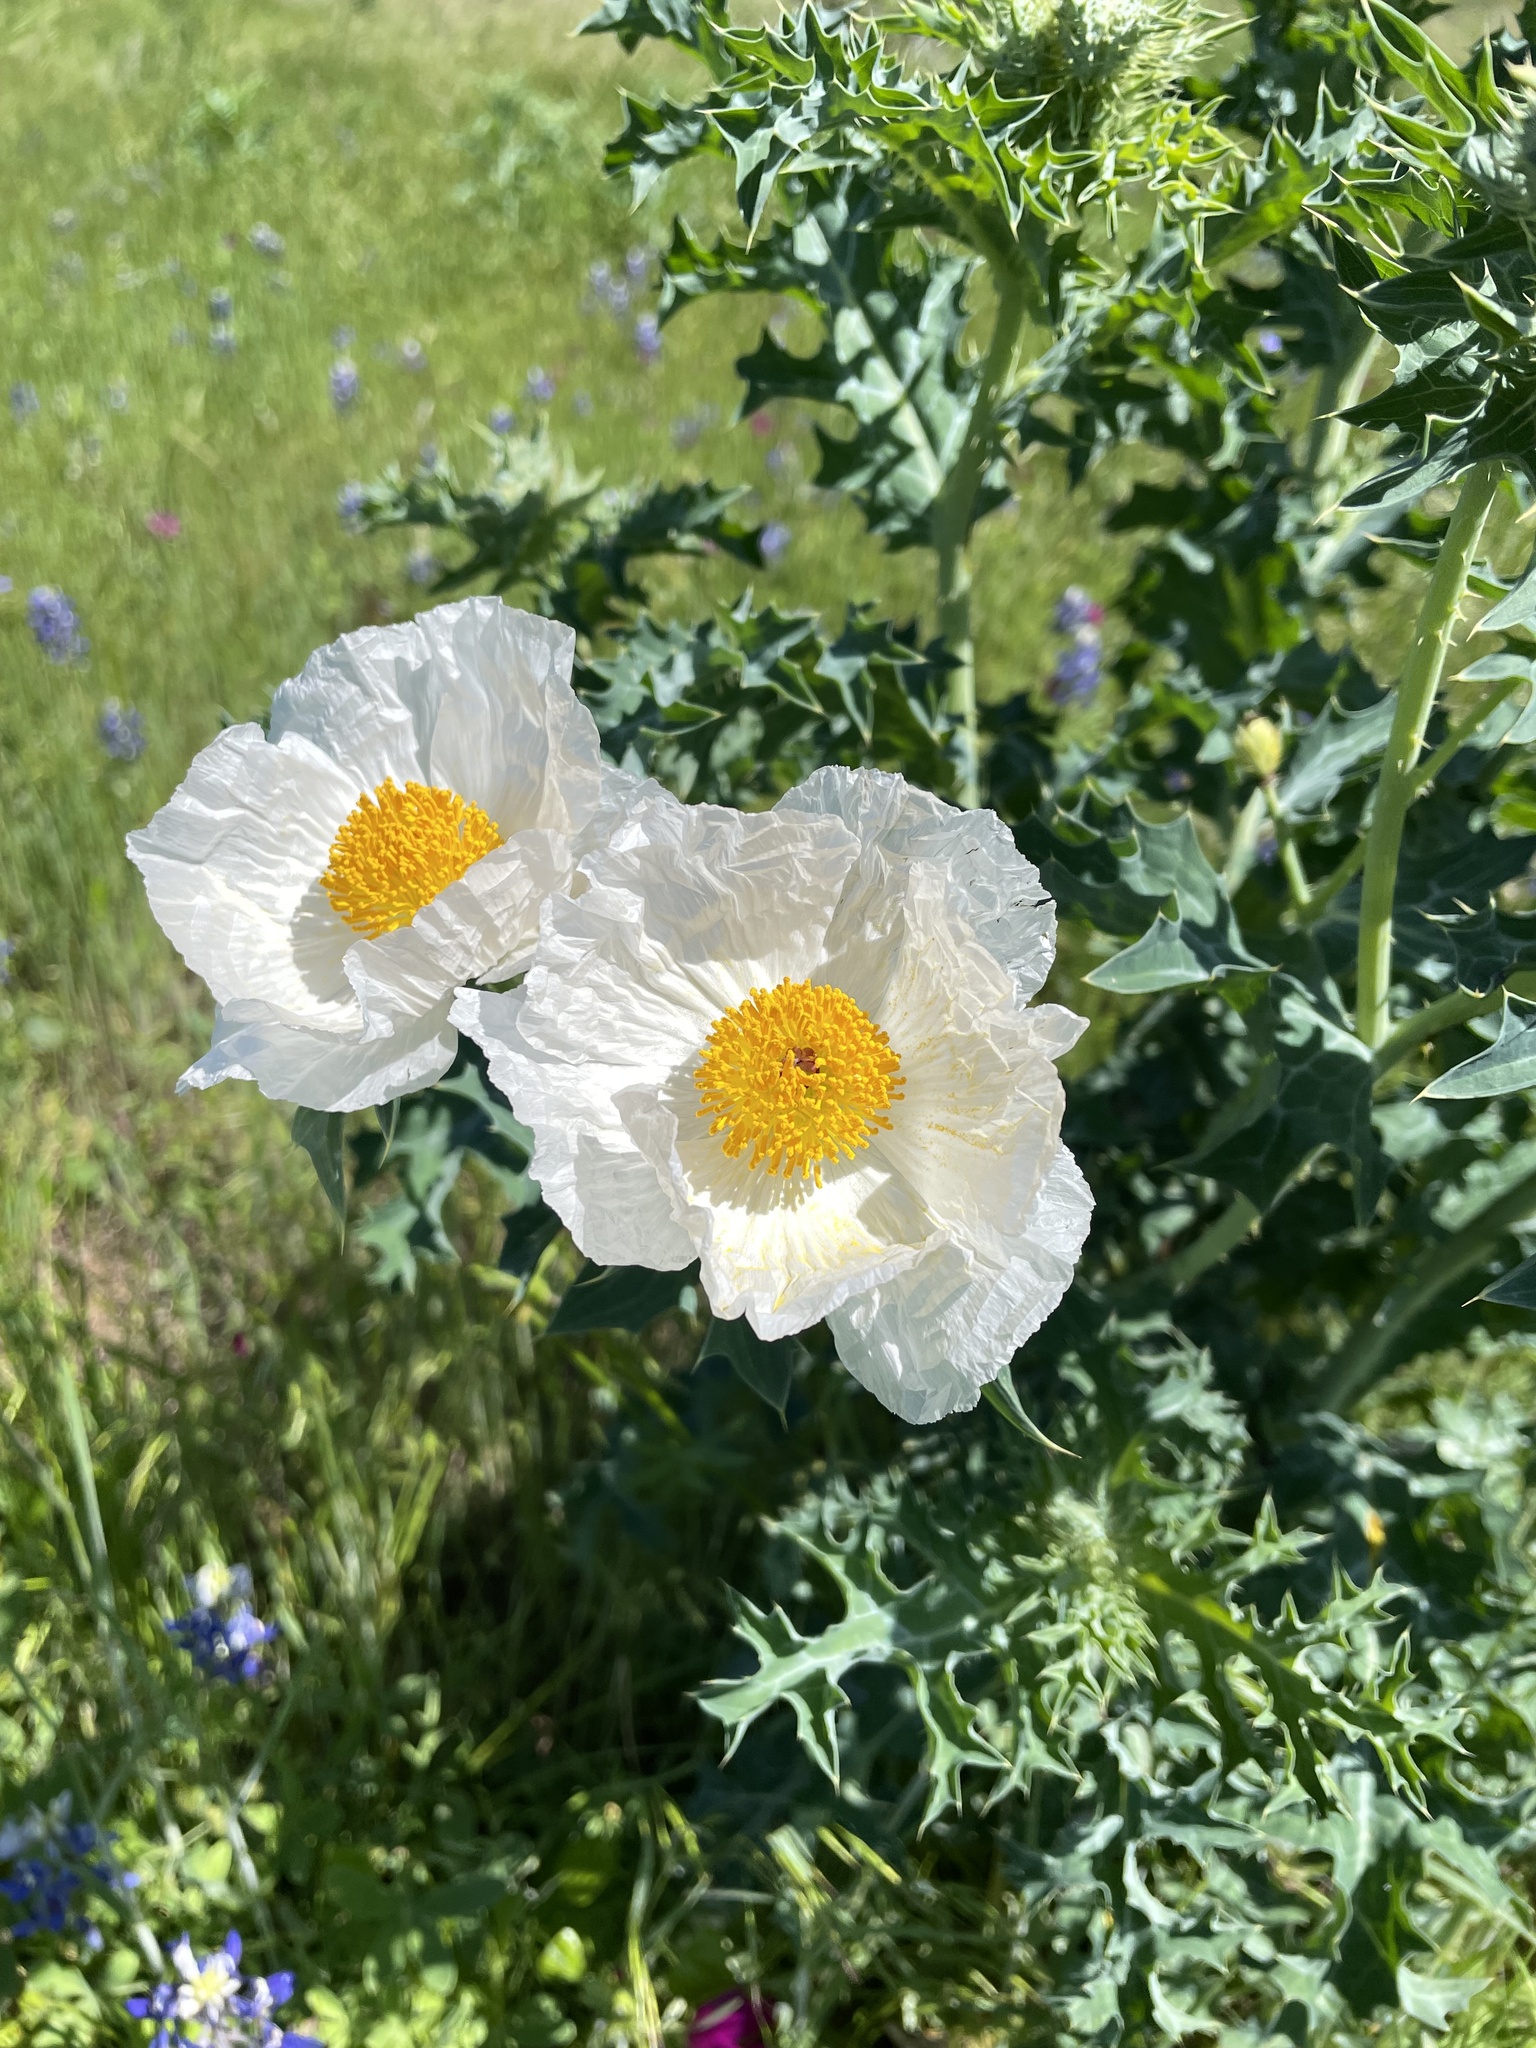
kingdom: Plantae
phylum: Tracheophyta
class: Magnoliopsida
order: Ranunculales
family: Papaveraceae
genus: Argemone
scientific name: Argemone albiflora
